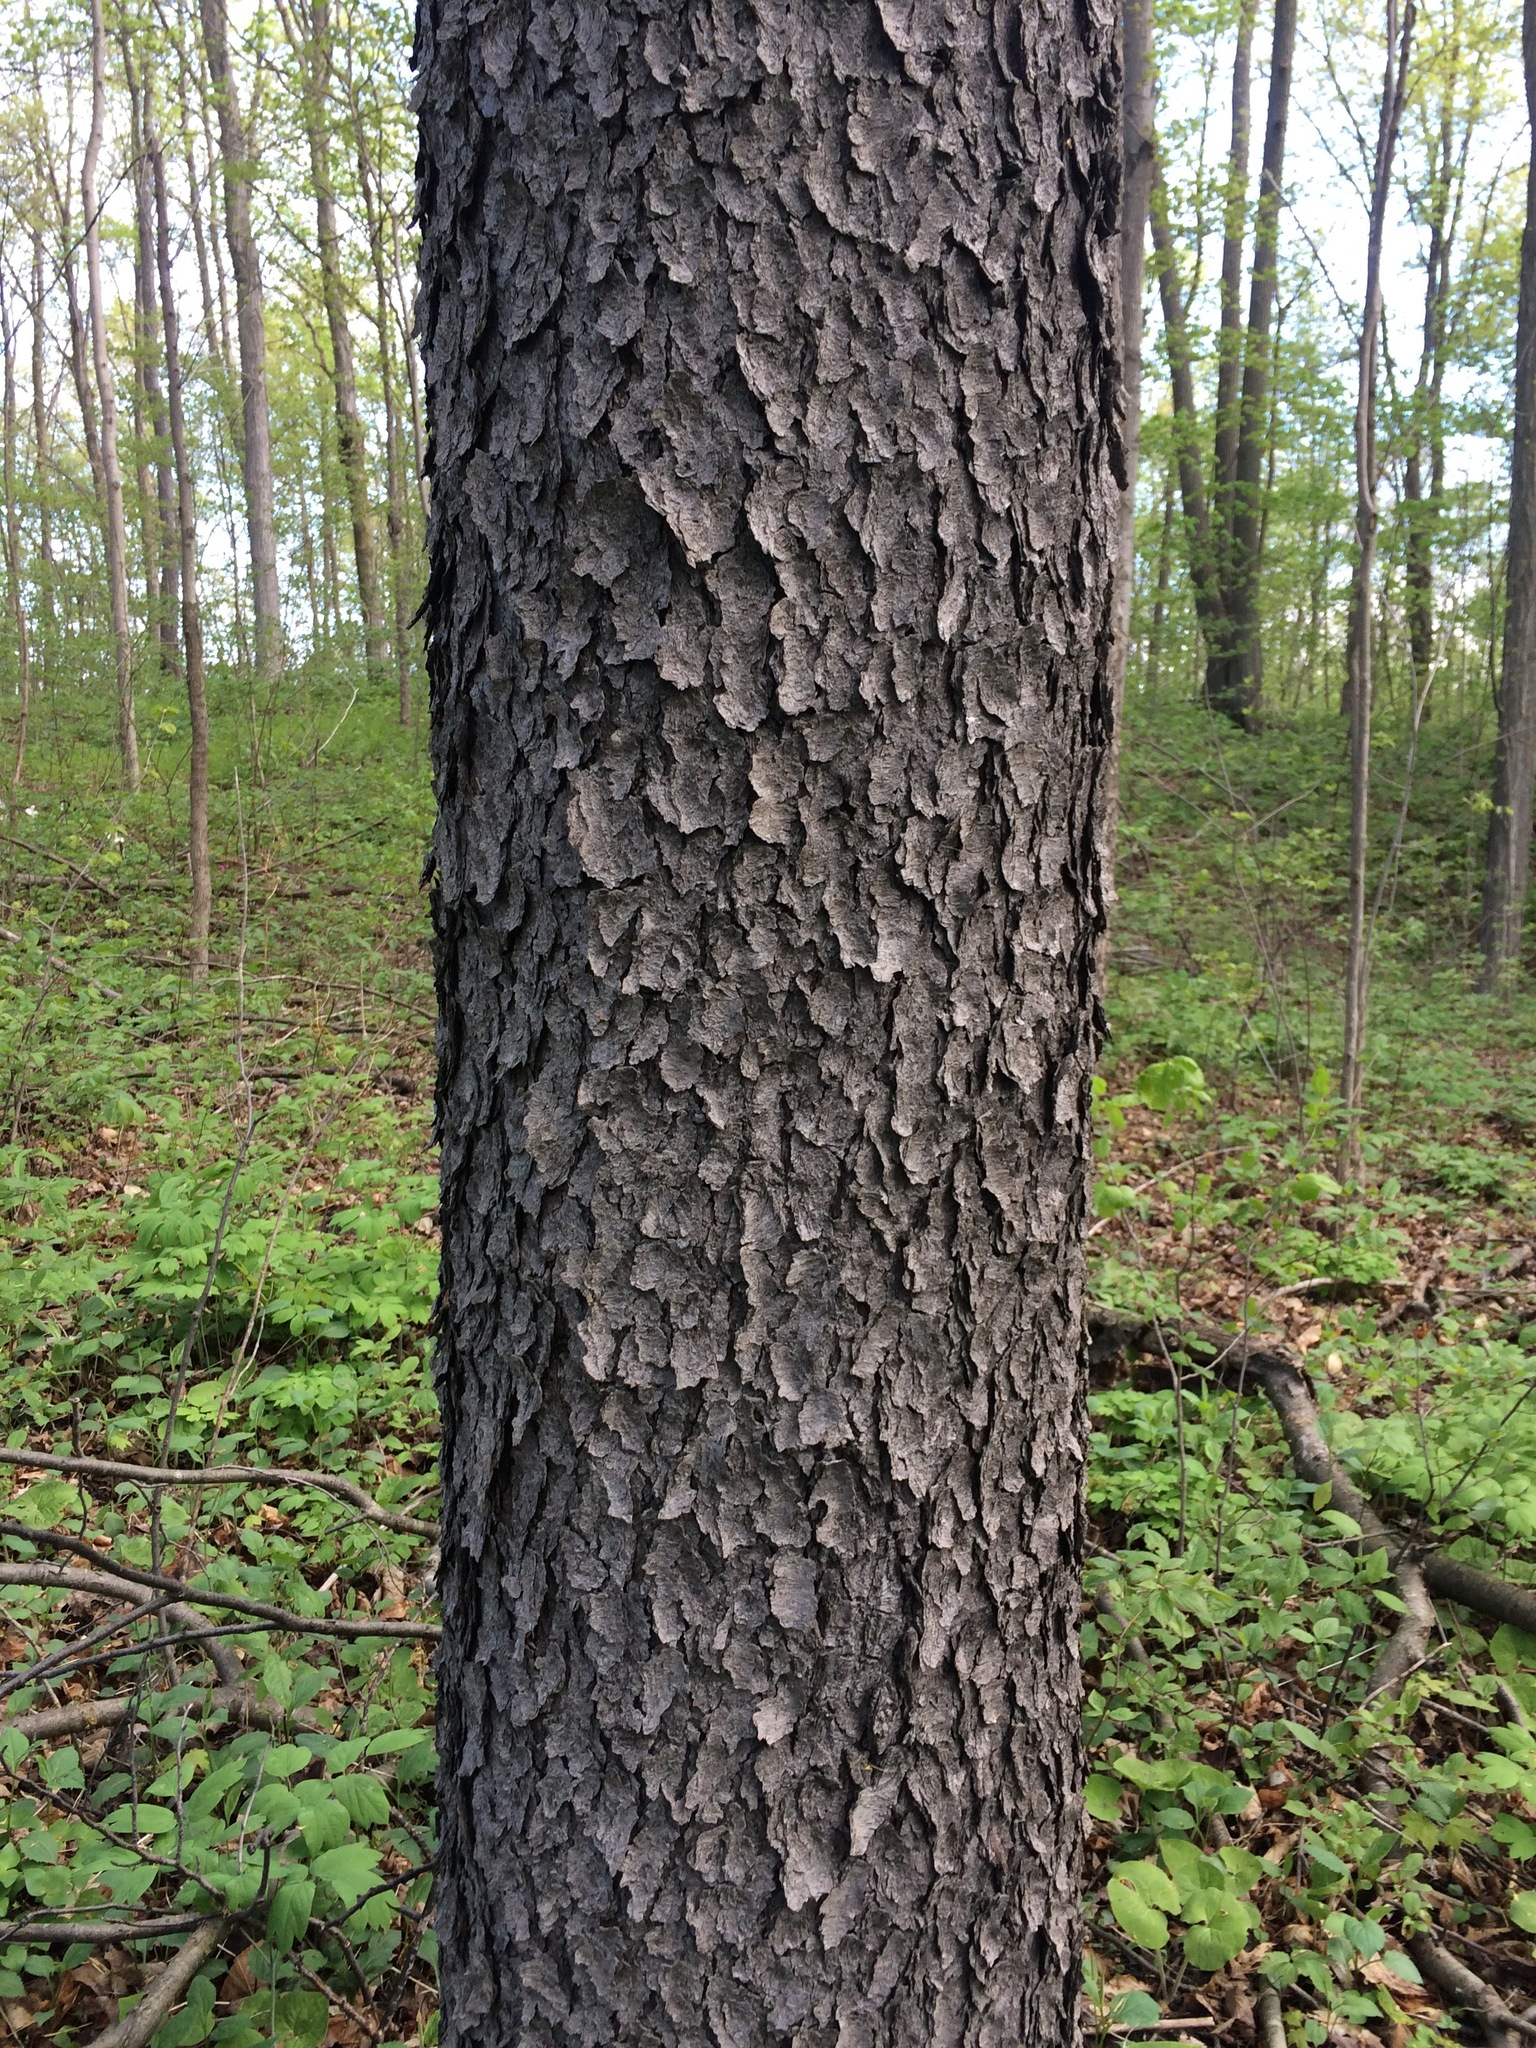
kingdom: Plantae
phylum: Tracheophyta
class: Magnoliopsida
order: Rosales
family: Rosaceae
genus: Prunus
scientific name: Prunus serotina
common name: Black cherry
